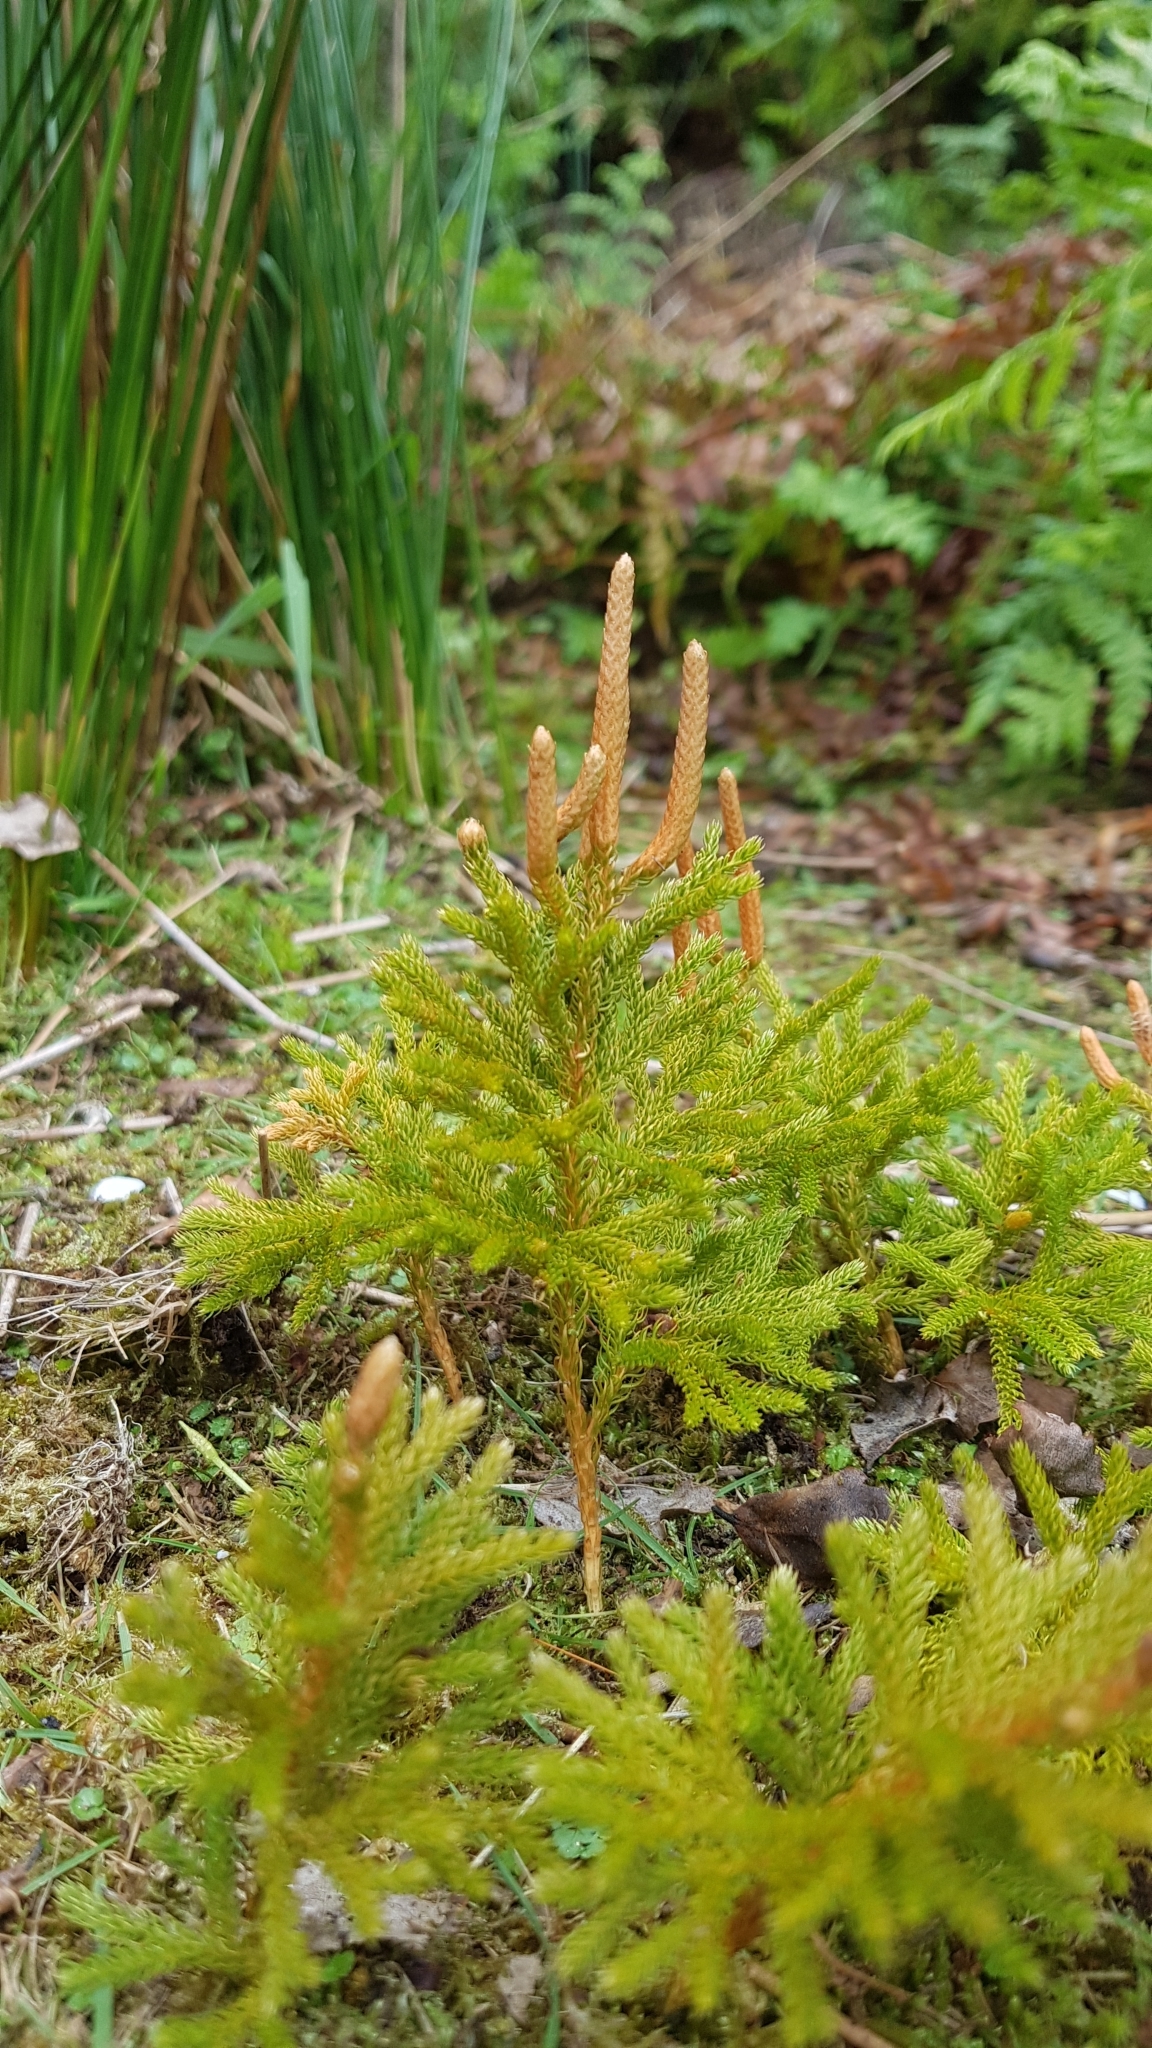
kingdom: Plantae
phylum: Tracheophyta
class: Lycopodiopsida
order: Lycopodiales
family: Lycopodiaceae
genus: Austrolycopodium
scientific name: Austrolycopodium fastigiatum
